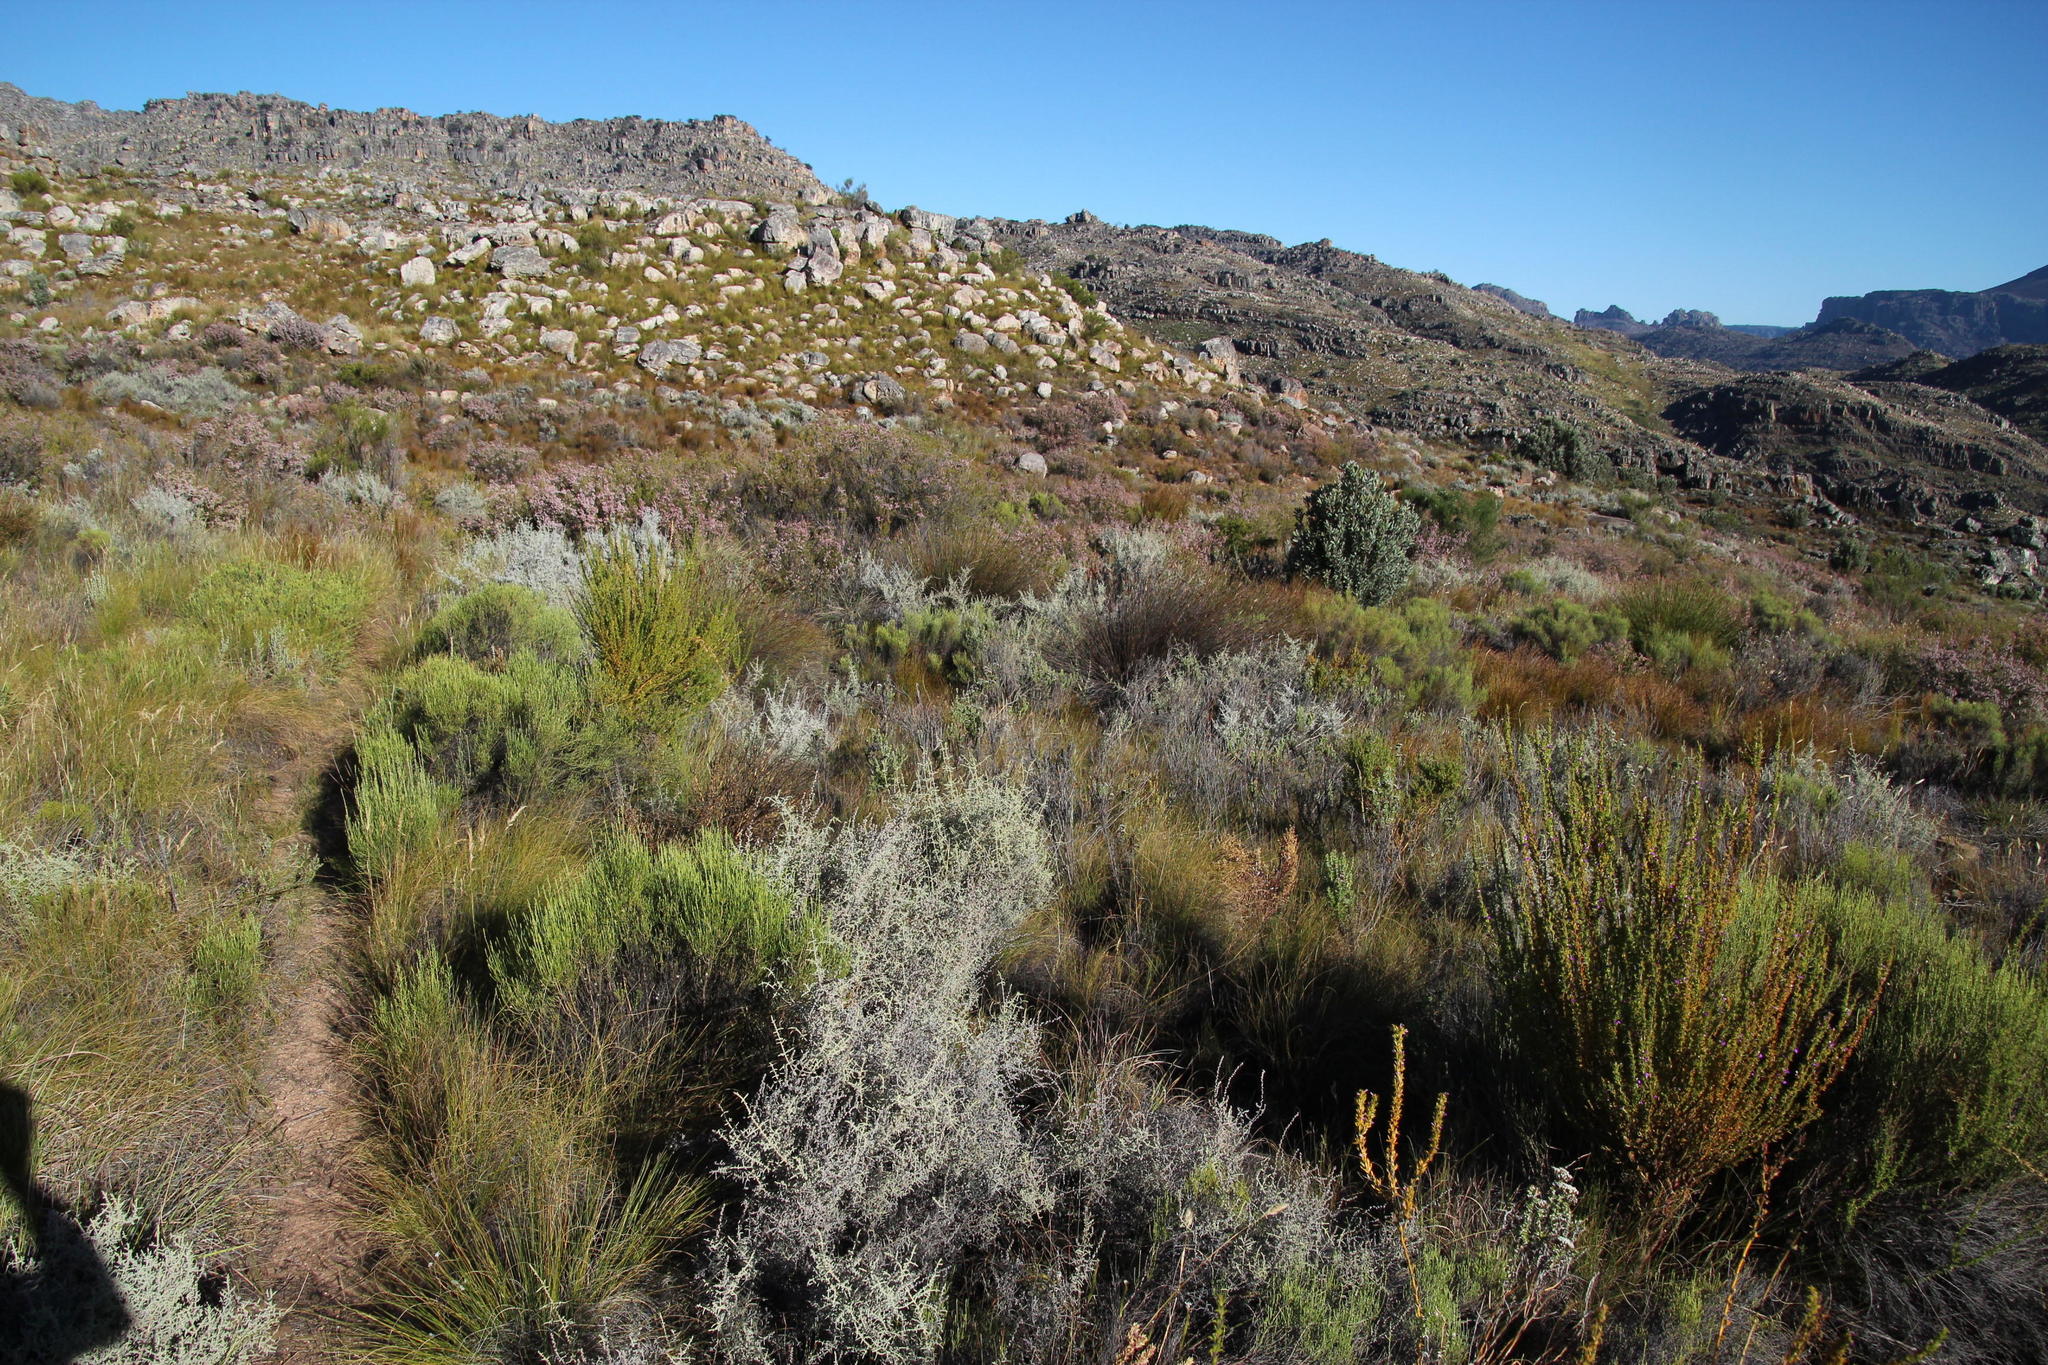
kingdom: Plantae
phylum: Tracheophyta
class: Magnoliopsida
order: Asterales
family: Asteraceae
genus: Seriphium
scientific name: Seriphium plumosum
